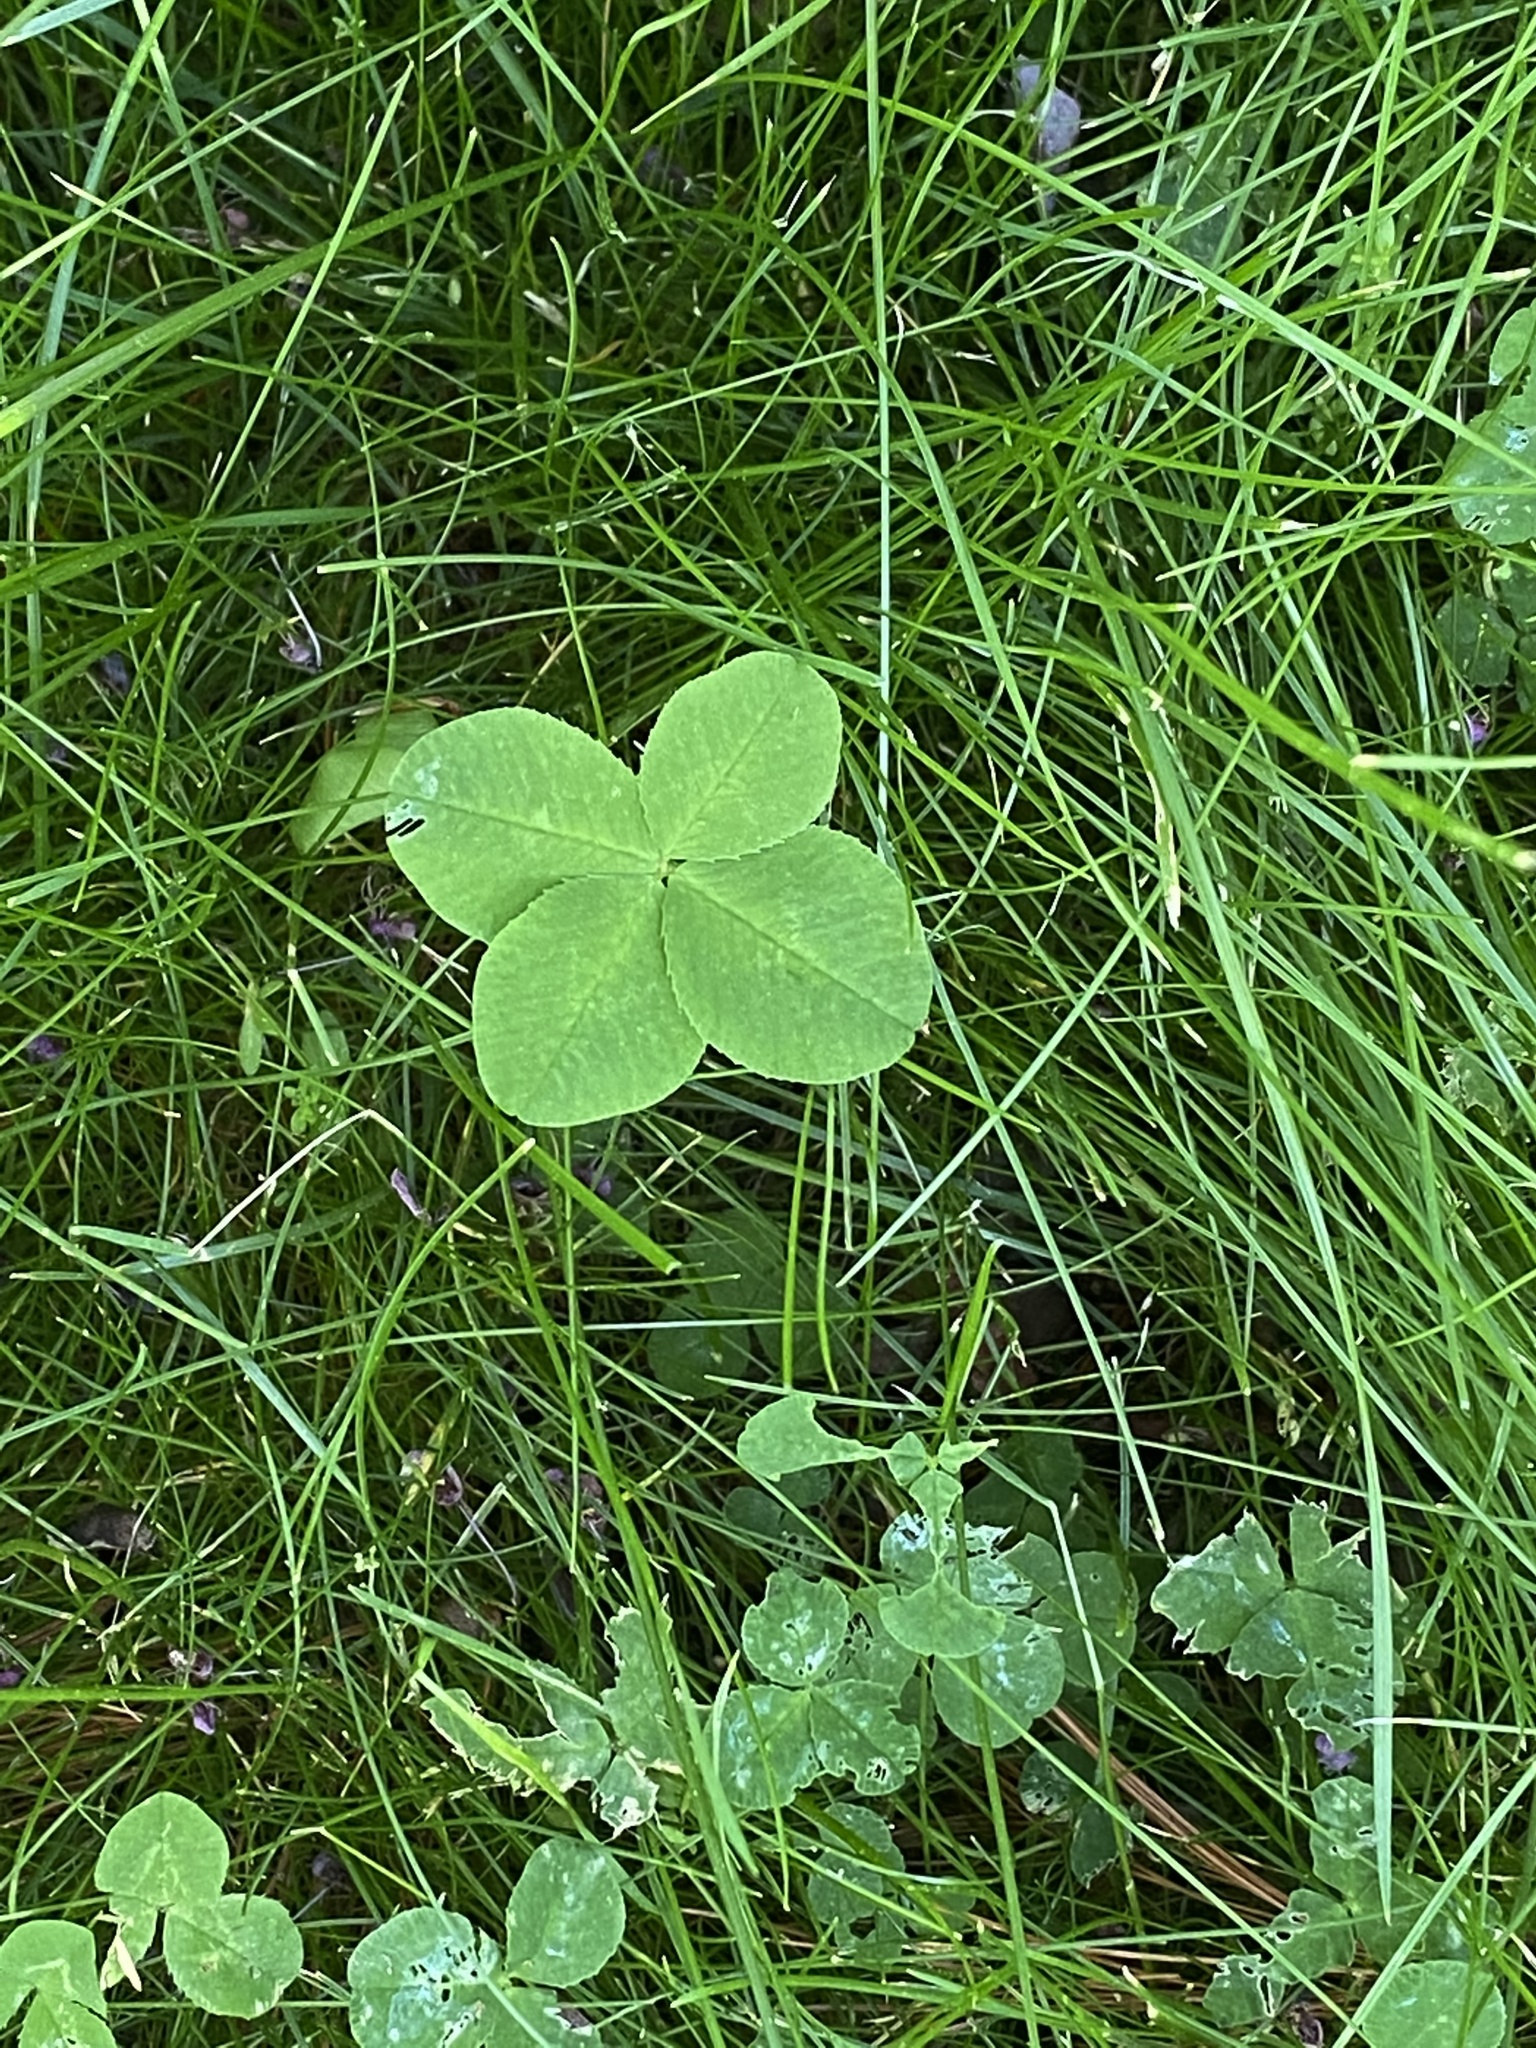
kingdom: Plantae
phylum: Tracheophyta
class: Magnoliopsida
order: Fabales
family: Fabaceae
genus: Trifolium
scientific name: Trifolium repens
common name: White clover
